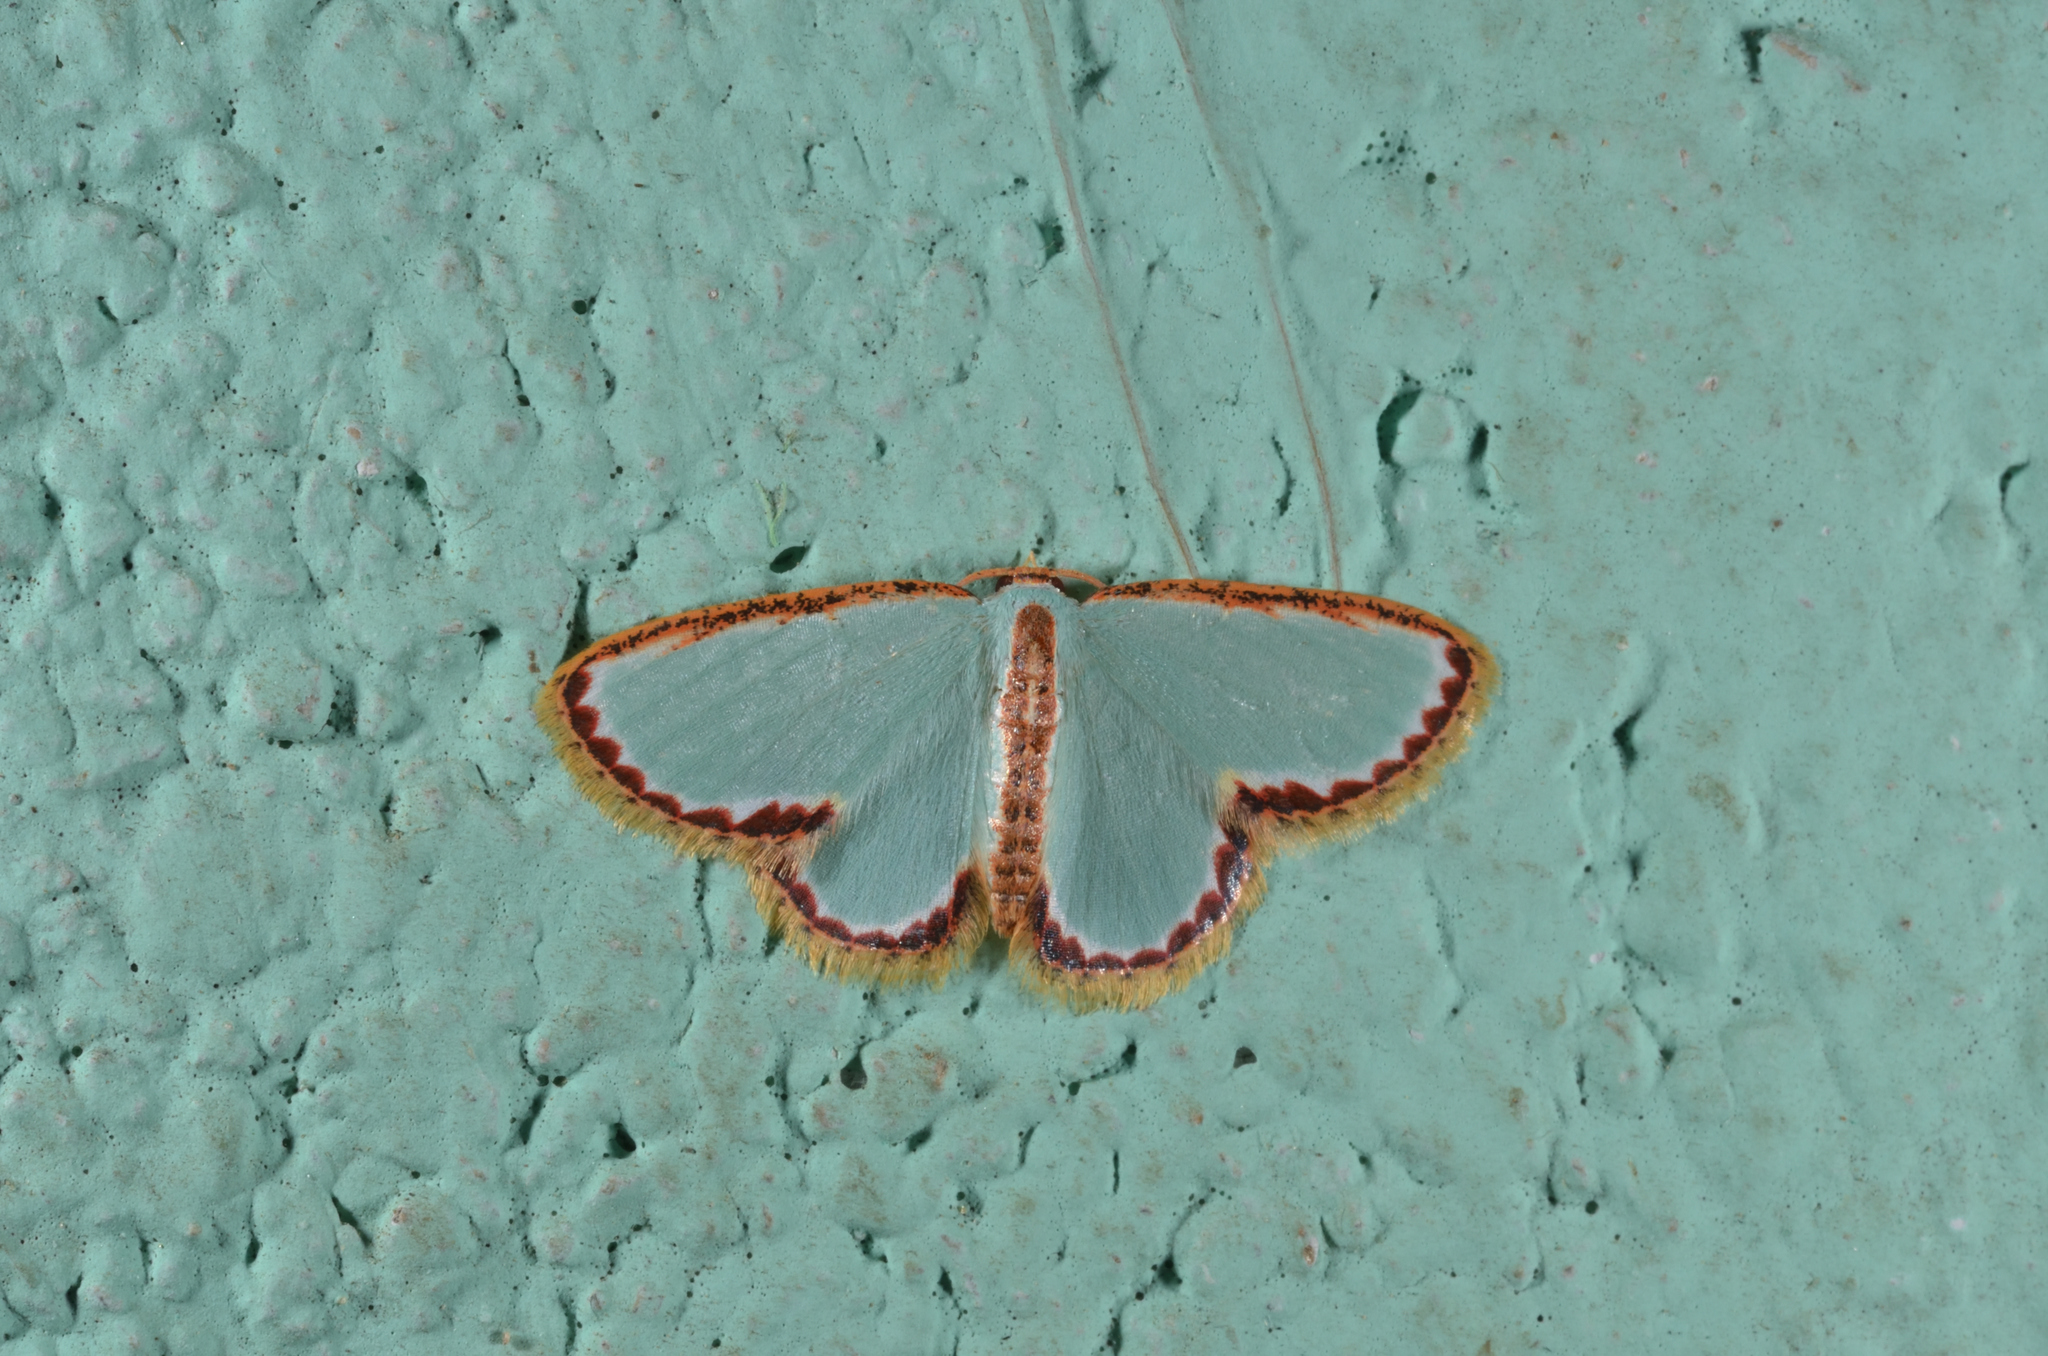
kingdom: Animalia
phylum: Arthropoda
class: Insecta
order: Lepidoptera
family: Geometridae
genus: Comostola
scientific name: Comostola pyrrhogona
